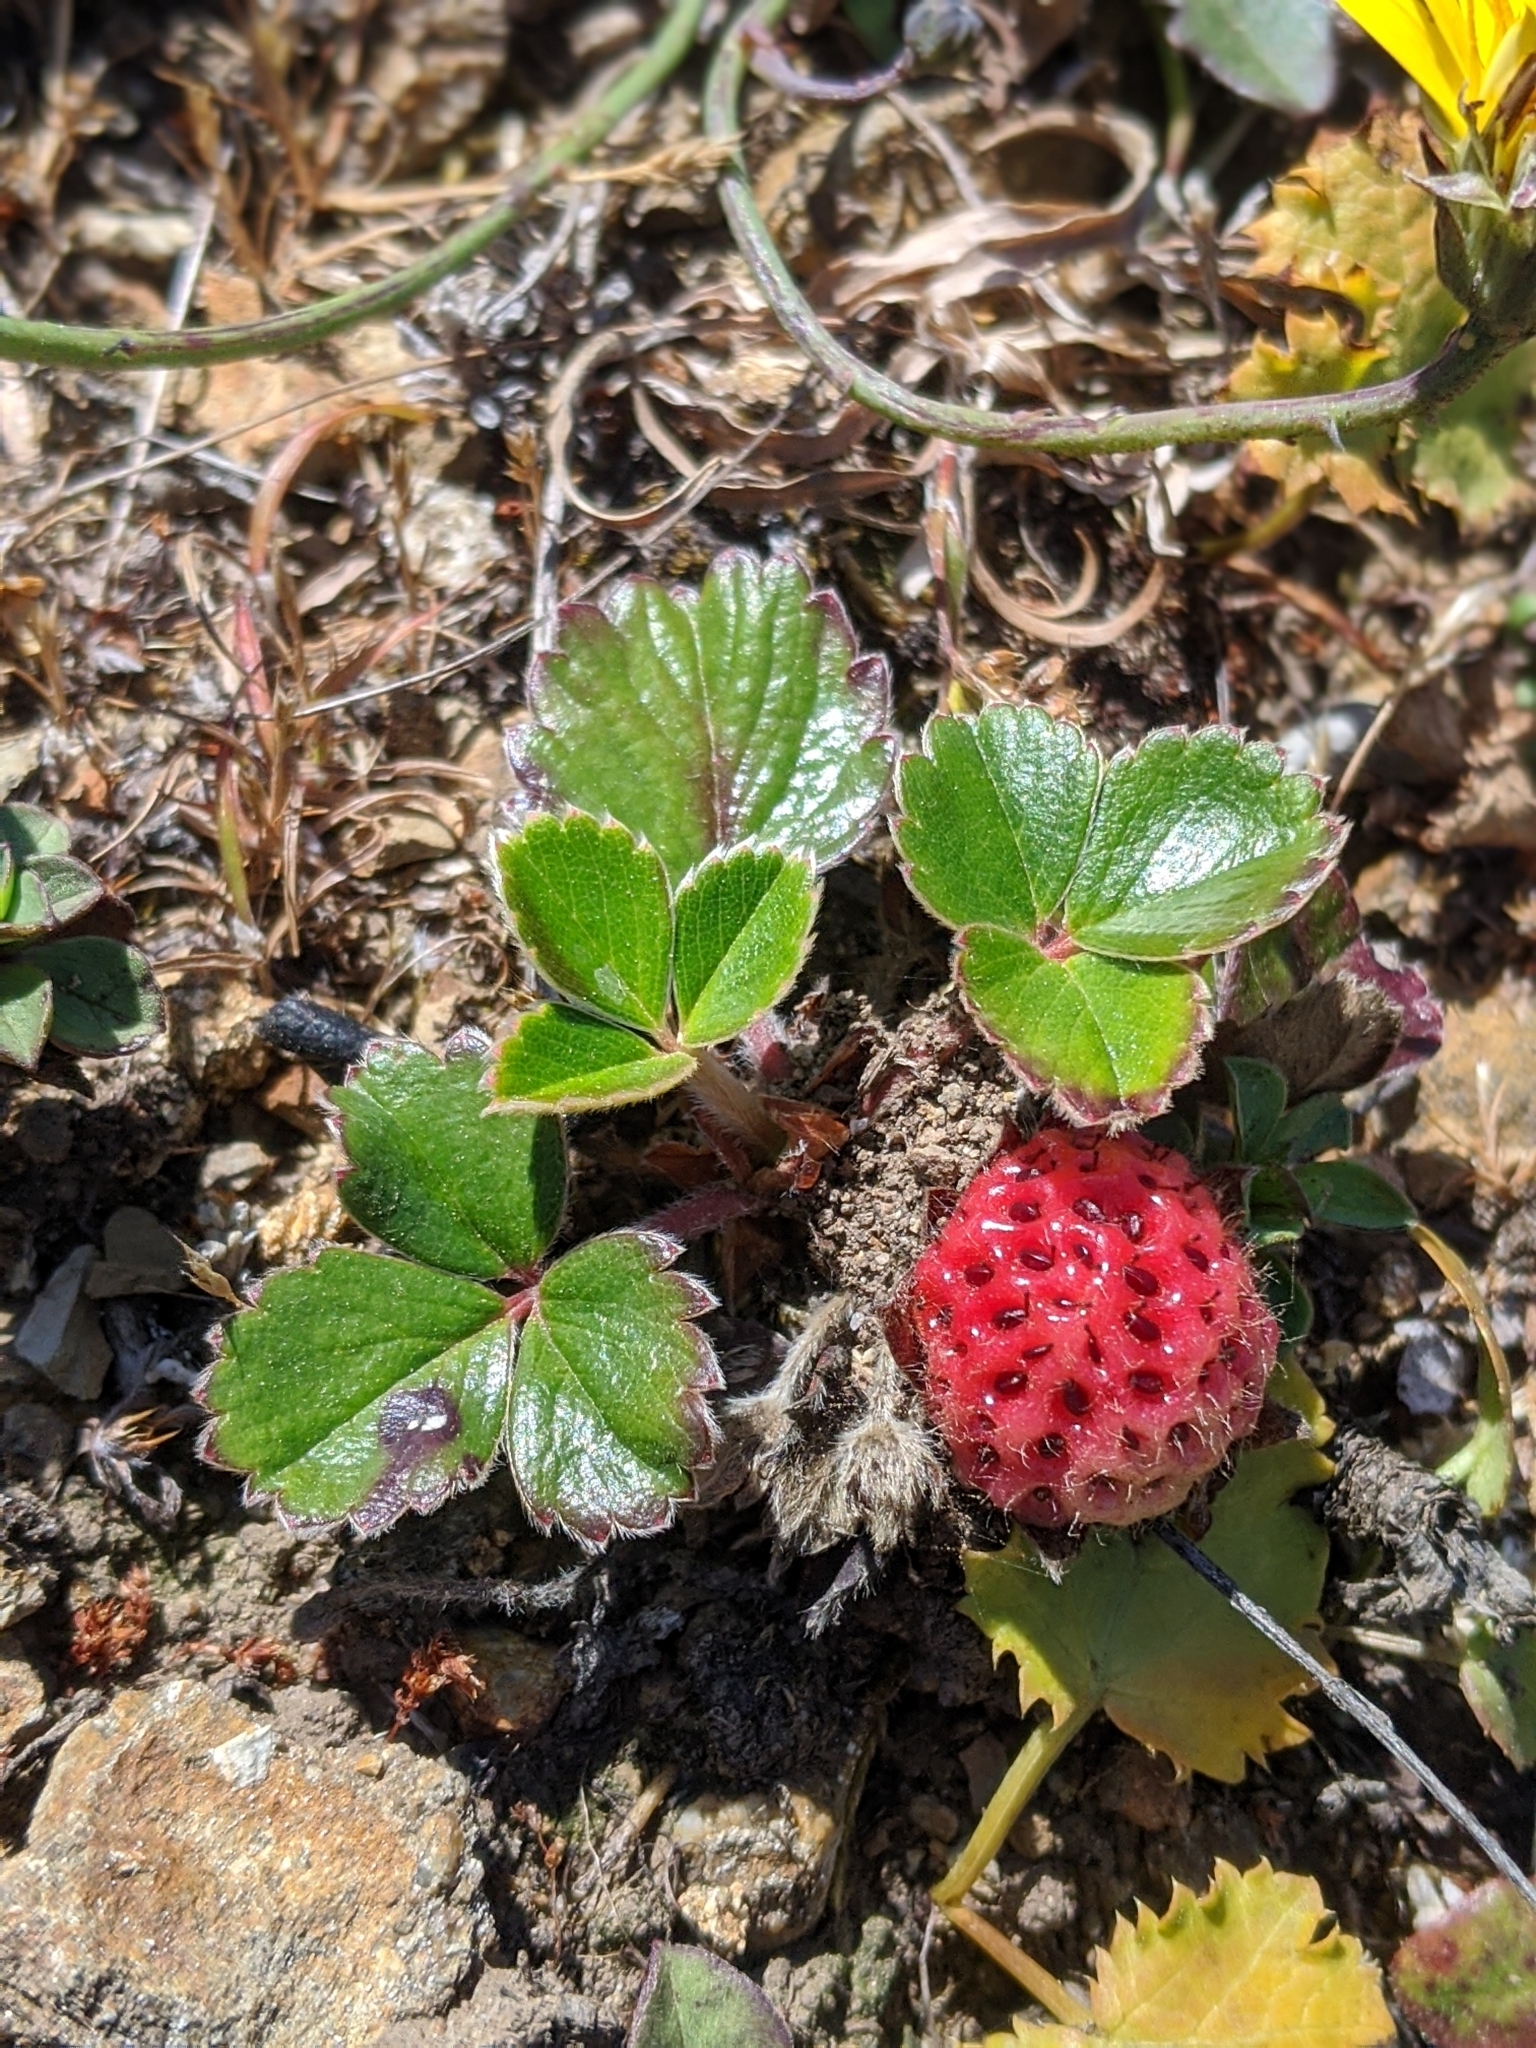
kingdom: Plantae
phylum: Tracheophyta
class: Magnoliopsida
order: Rosales
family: Rosaceae
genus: Fragaria
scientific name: Fragaria chiloensis
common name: Beach strawberry
